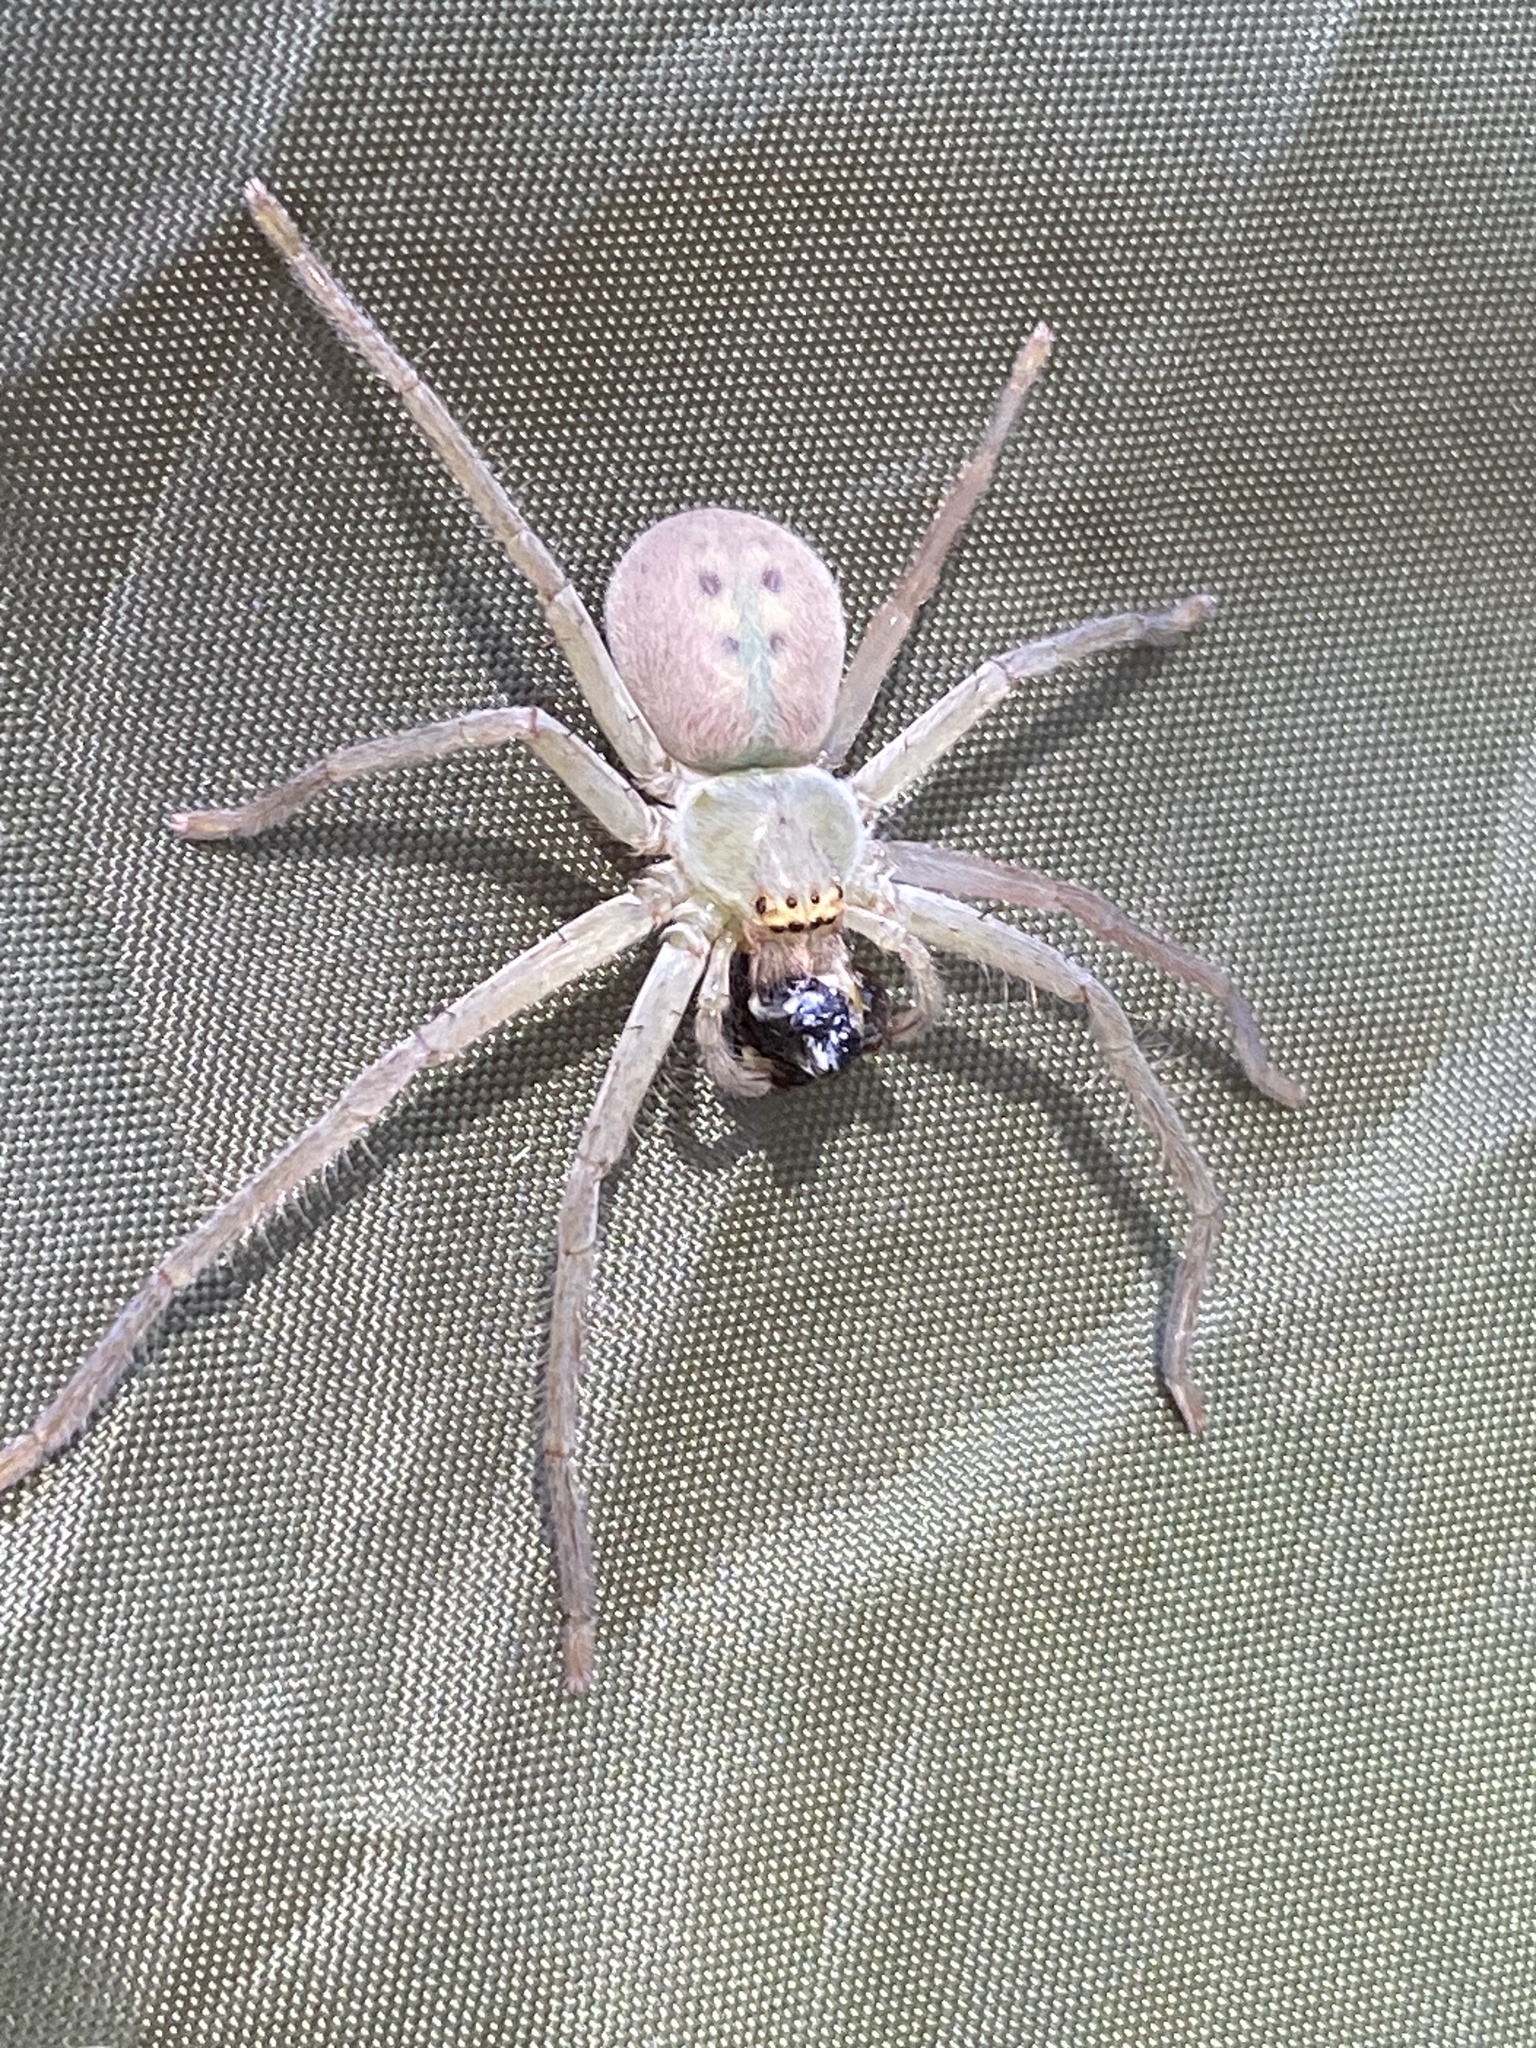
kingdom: Animalia
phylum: Arthropoda
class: Arachnida
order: Araneae
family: Sparassidae
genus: Typostola
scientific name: Typostola barbata
